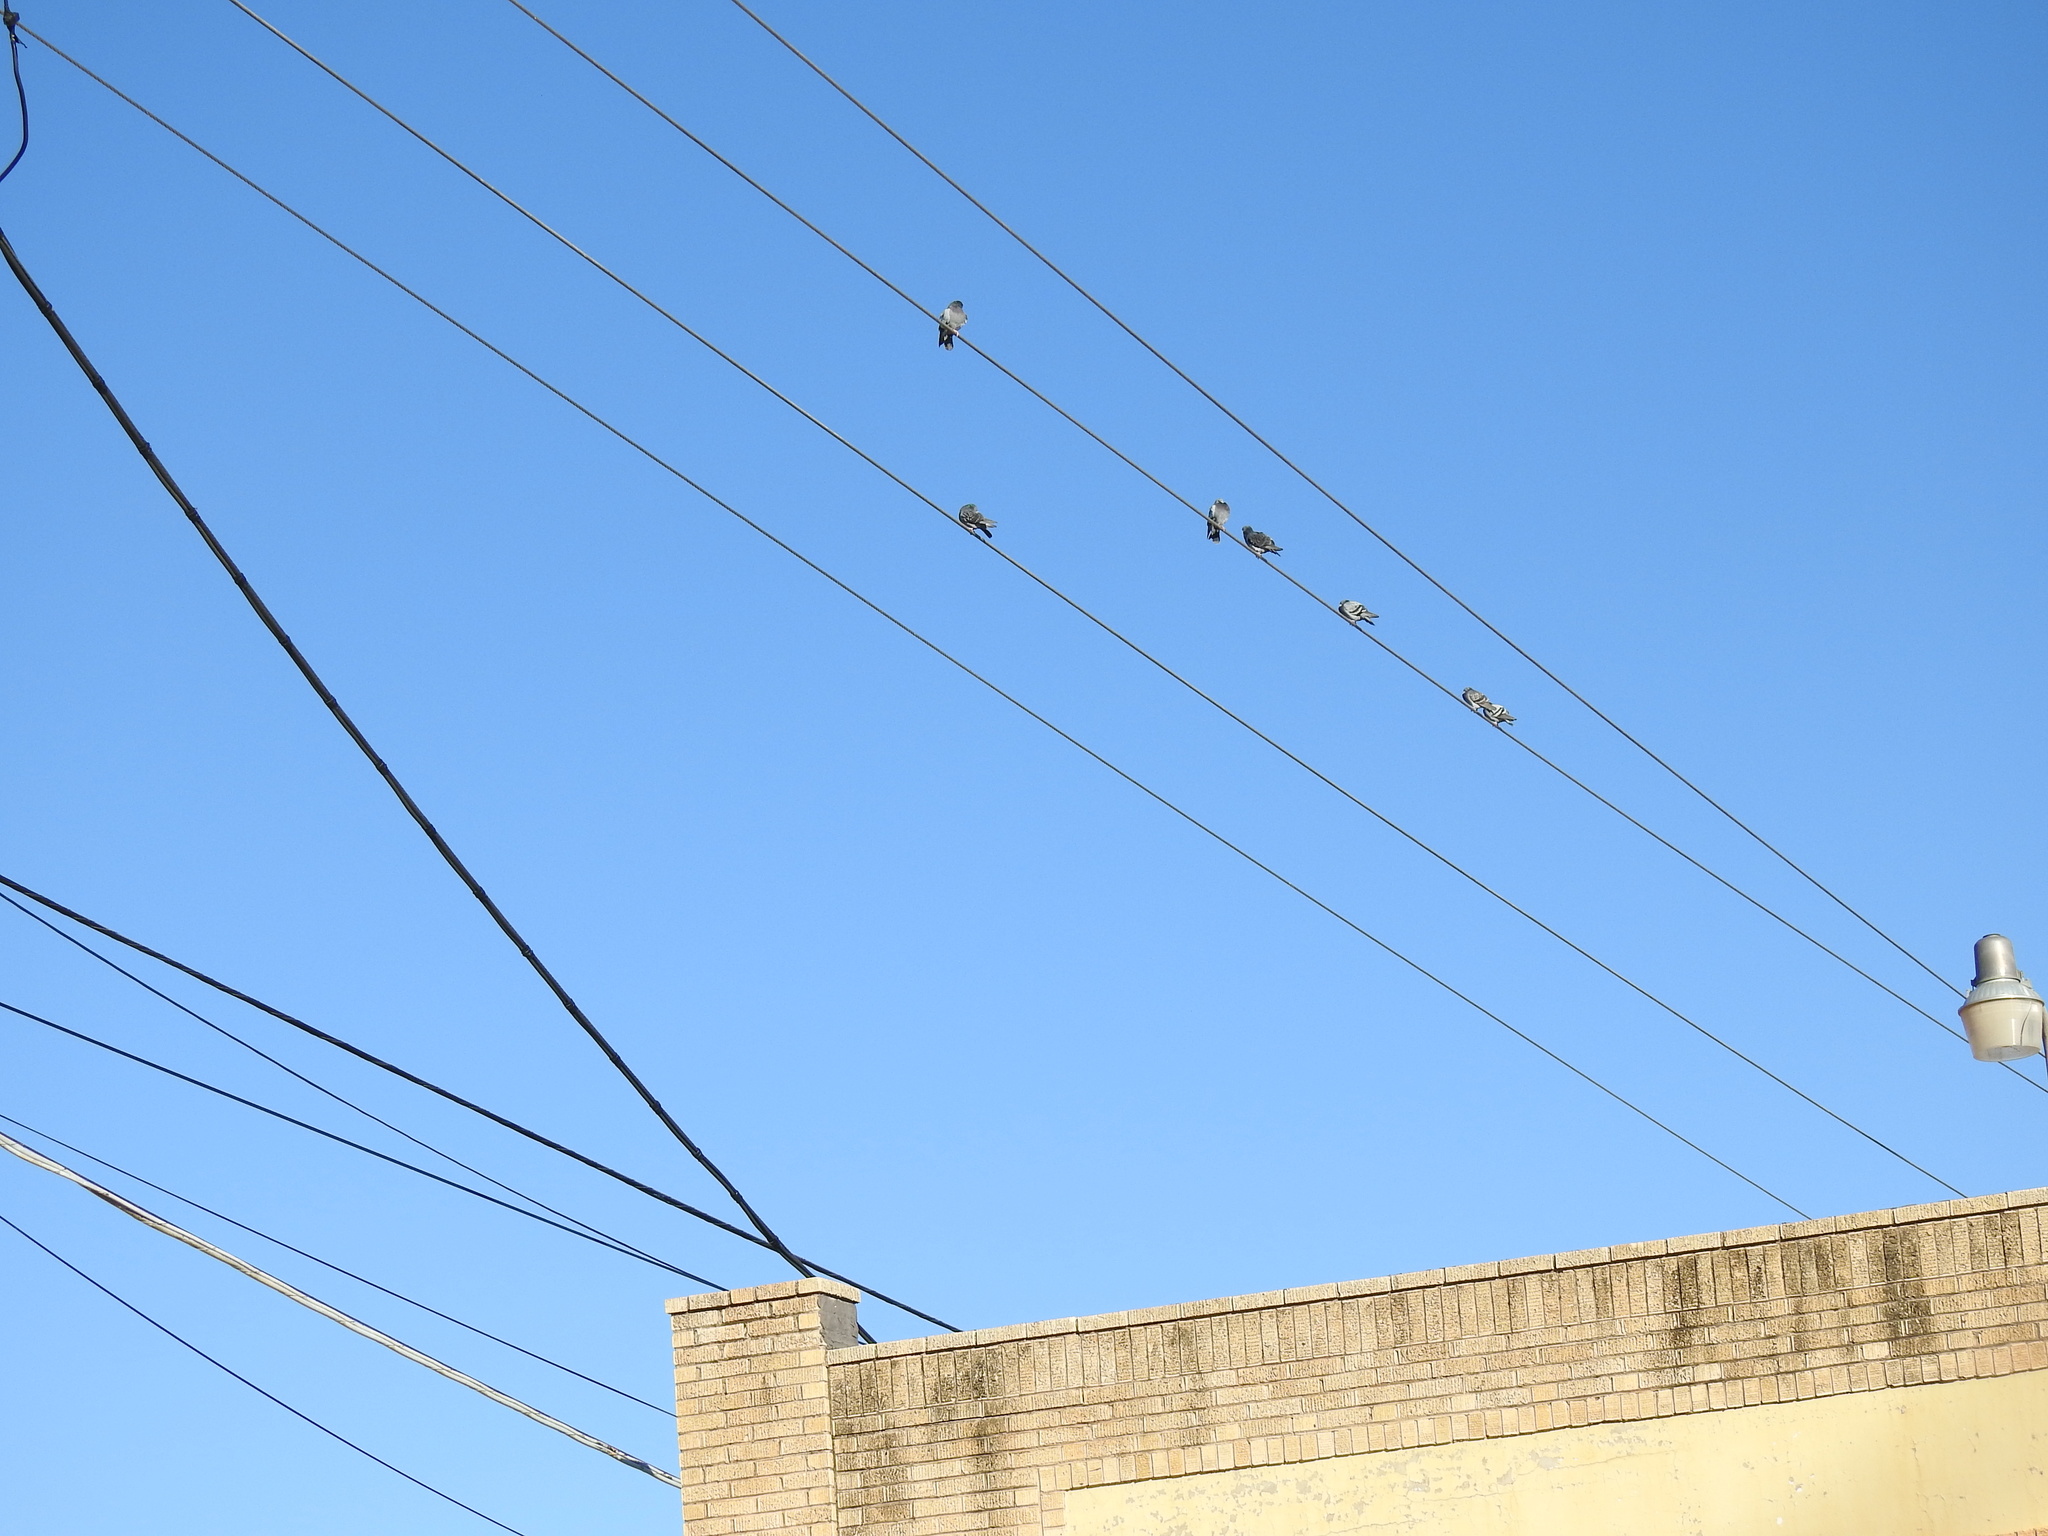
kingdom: Animalia
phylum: Chordata
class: Aves
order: Columbiformes
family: Columbidae
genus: Columba
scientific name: Columba livia
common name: Rock pigeon
